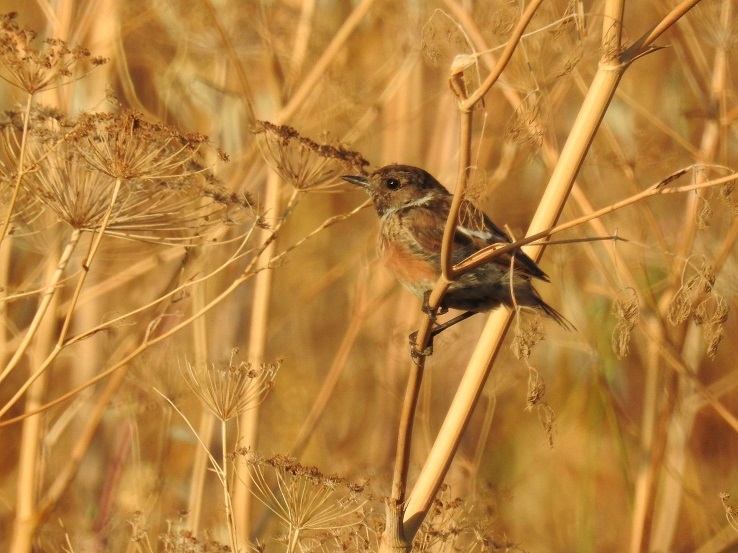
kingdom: Animalia
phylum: Chordata
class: Aves
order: Passeriformes
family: Muscicapidae
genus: Saxicola
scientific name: Saxicola rubicola
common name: European stonechat
